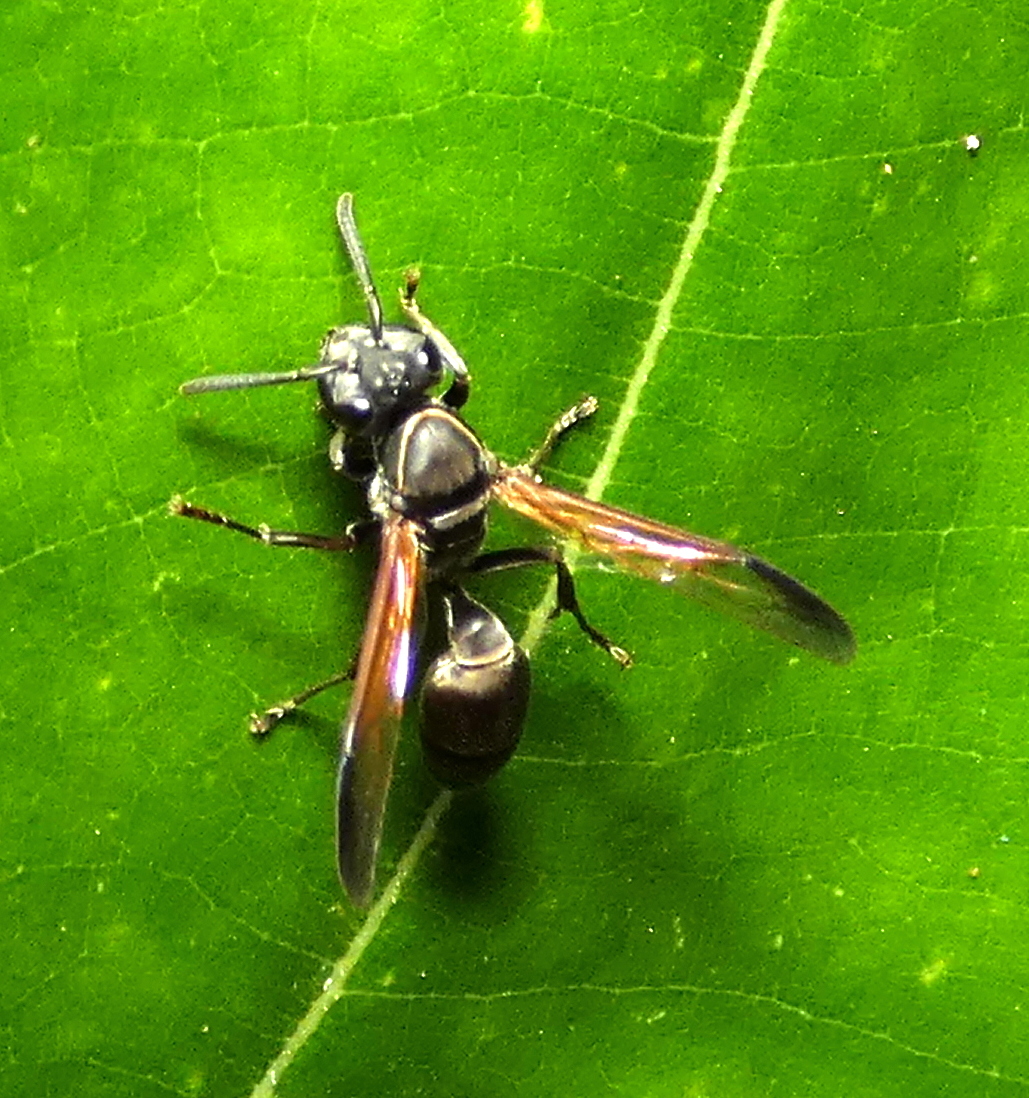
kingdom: Animalia
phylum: Arthropoda
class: Insecta
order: Hymenoptera
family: Eumenidae
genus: Polybia
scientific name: Polybia rejecta
